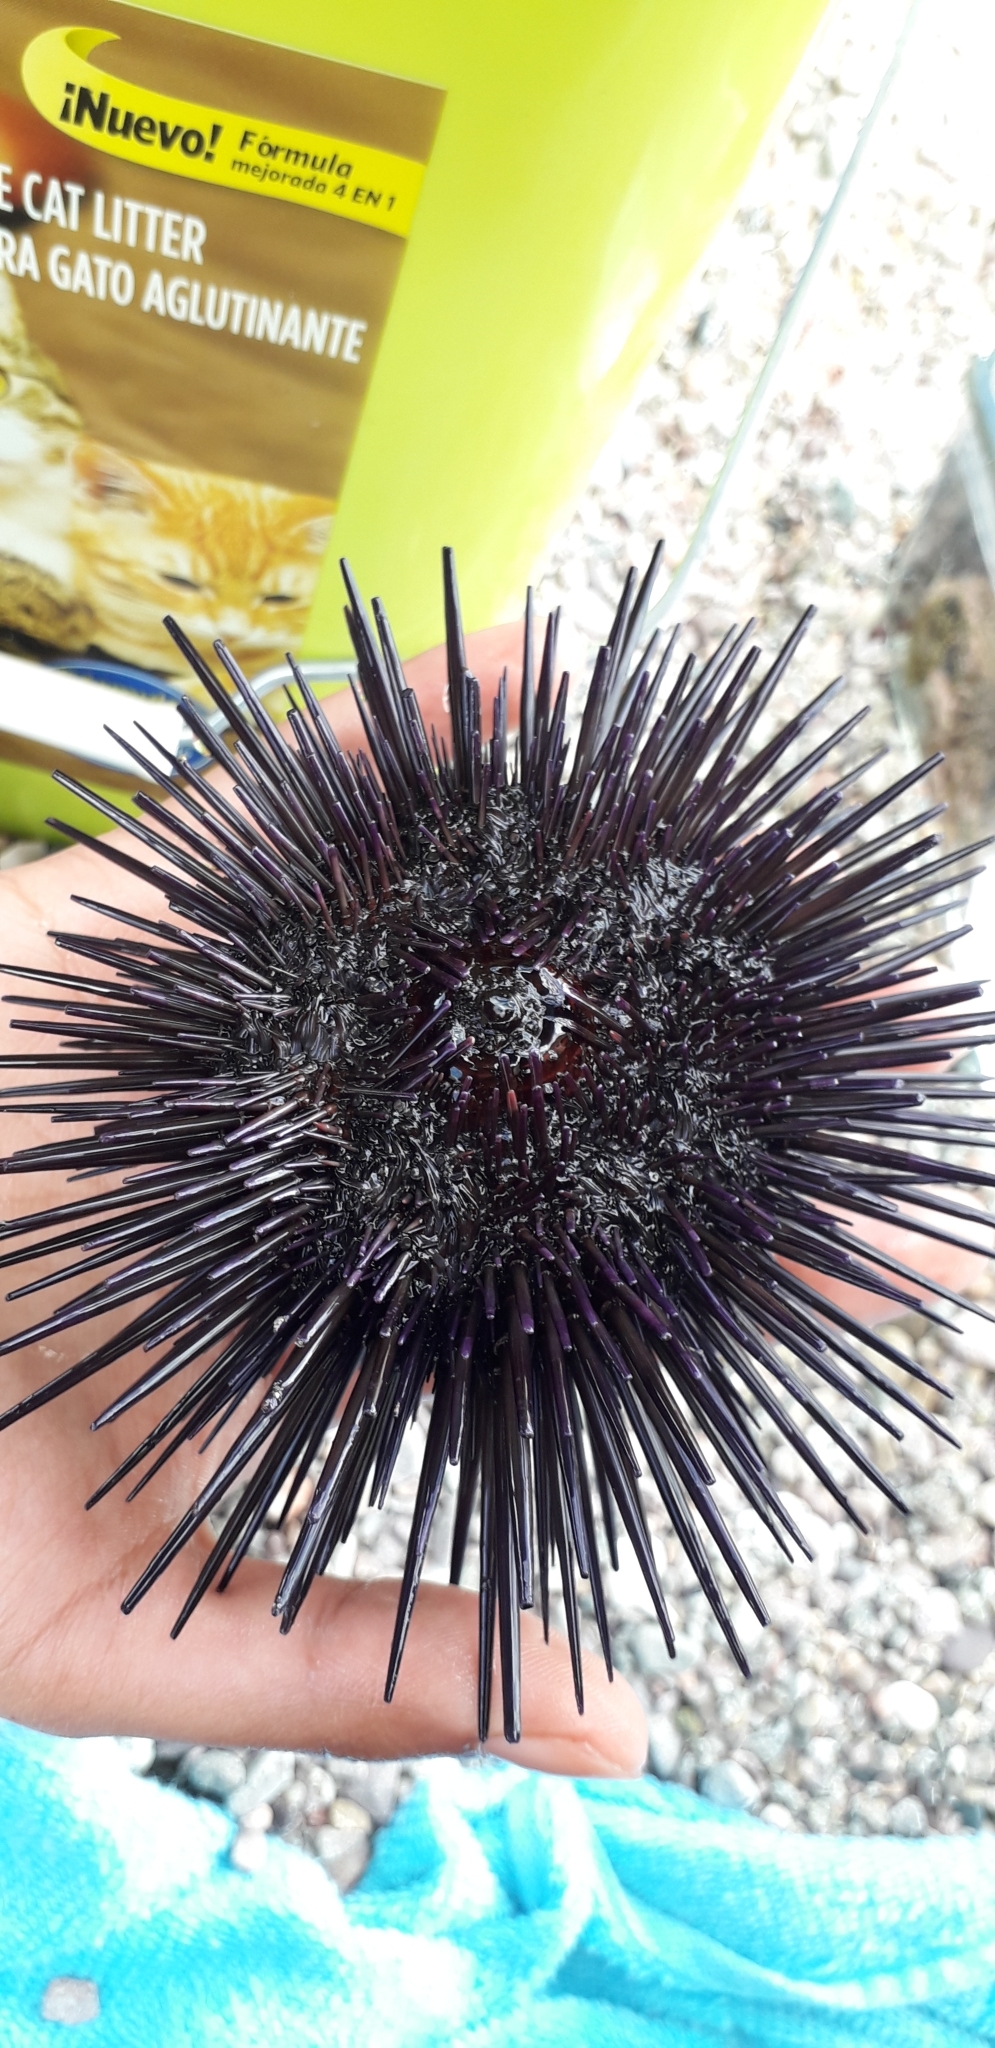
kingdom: Animalia
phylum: Echinodermata
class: Echinoidea
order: Camarodonta
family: Echinometridae
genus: Echinometra
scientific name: Echinometra vanbrunti
